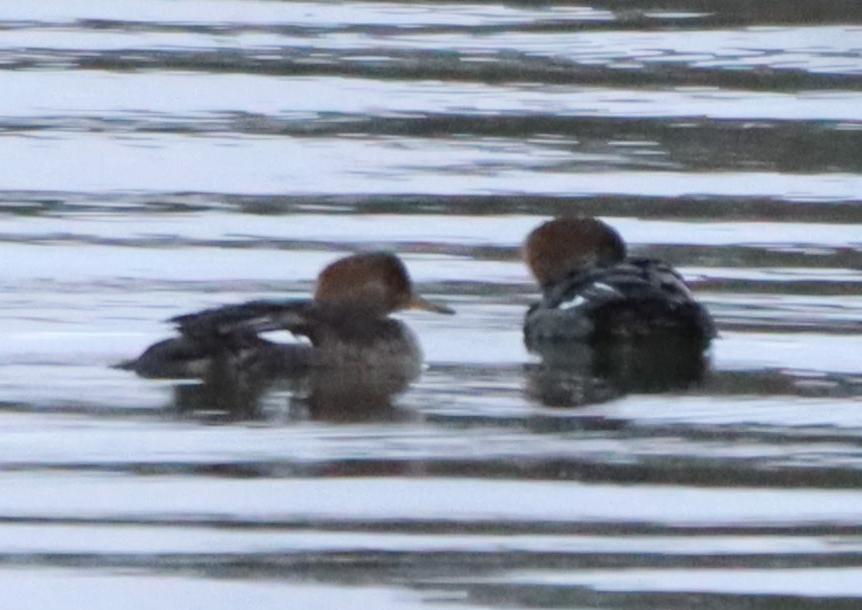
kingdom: Animalia
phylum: Chordata
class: Aves
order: Anseriformes
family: Anatidae
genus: Lophodytes
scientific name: Lophodytes cucullatus
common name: Hooded merganser
